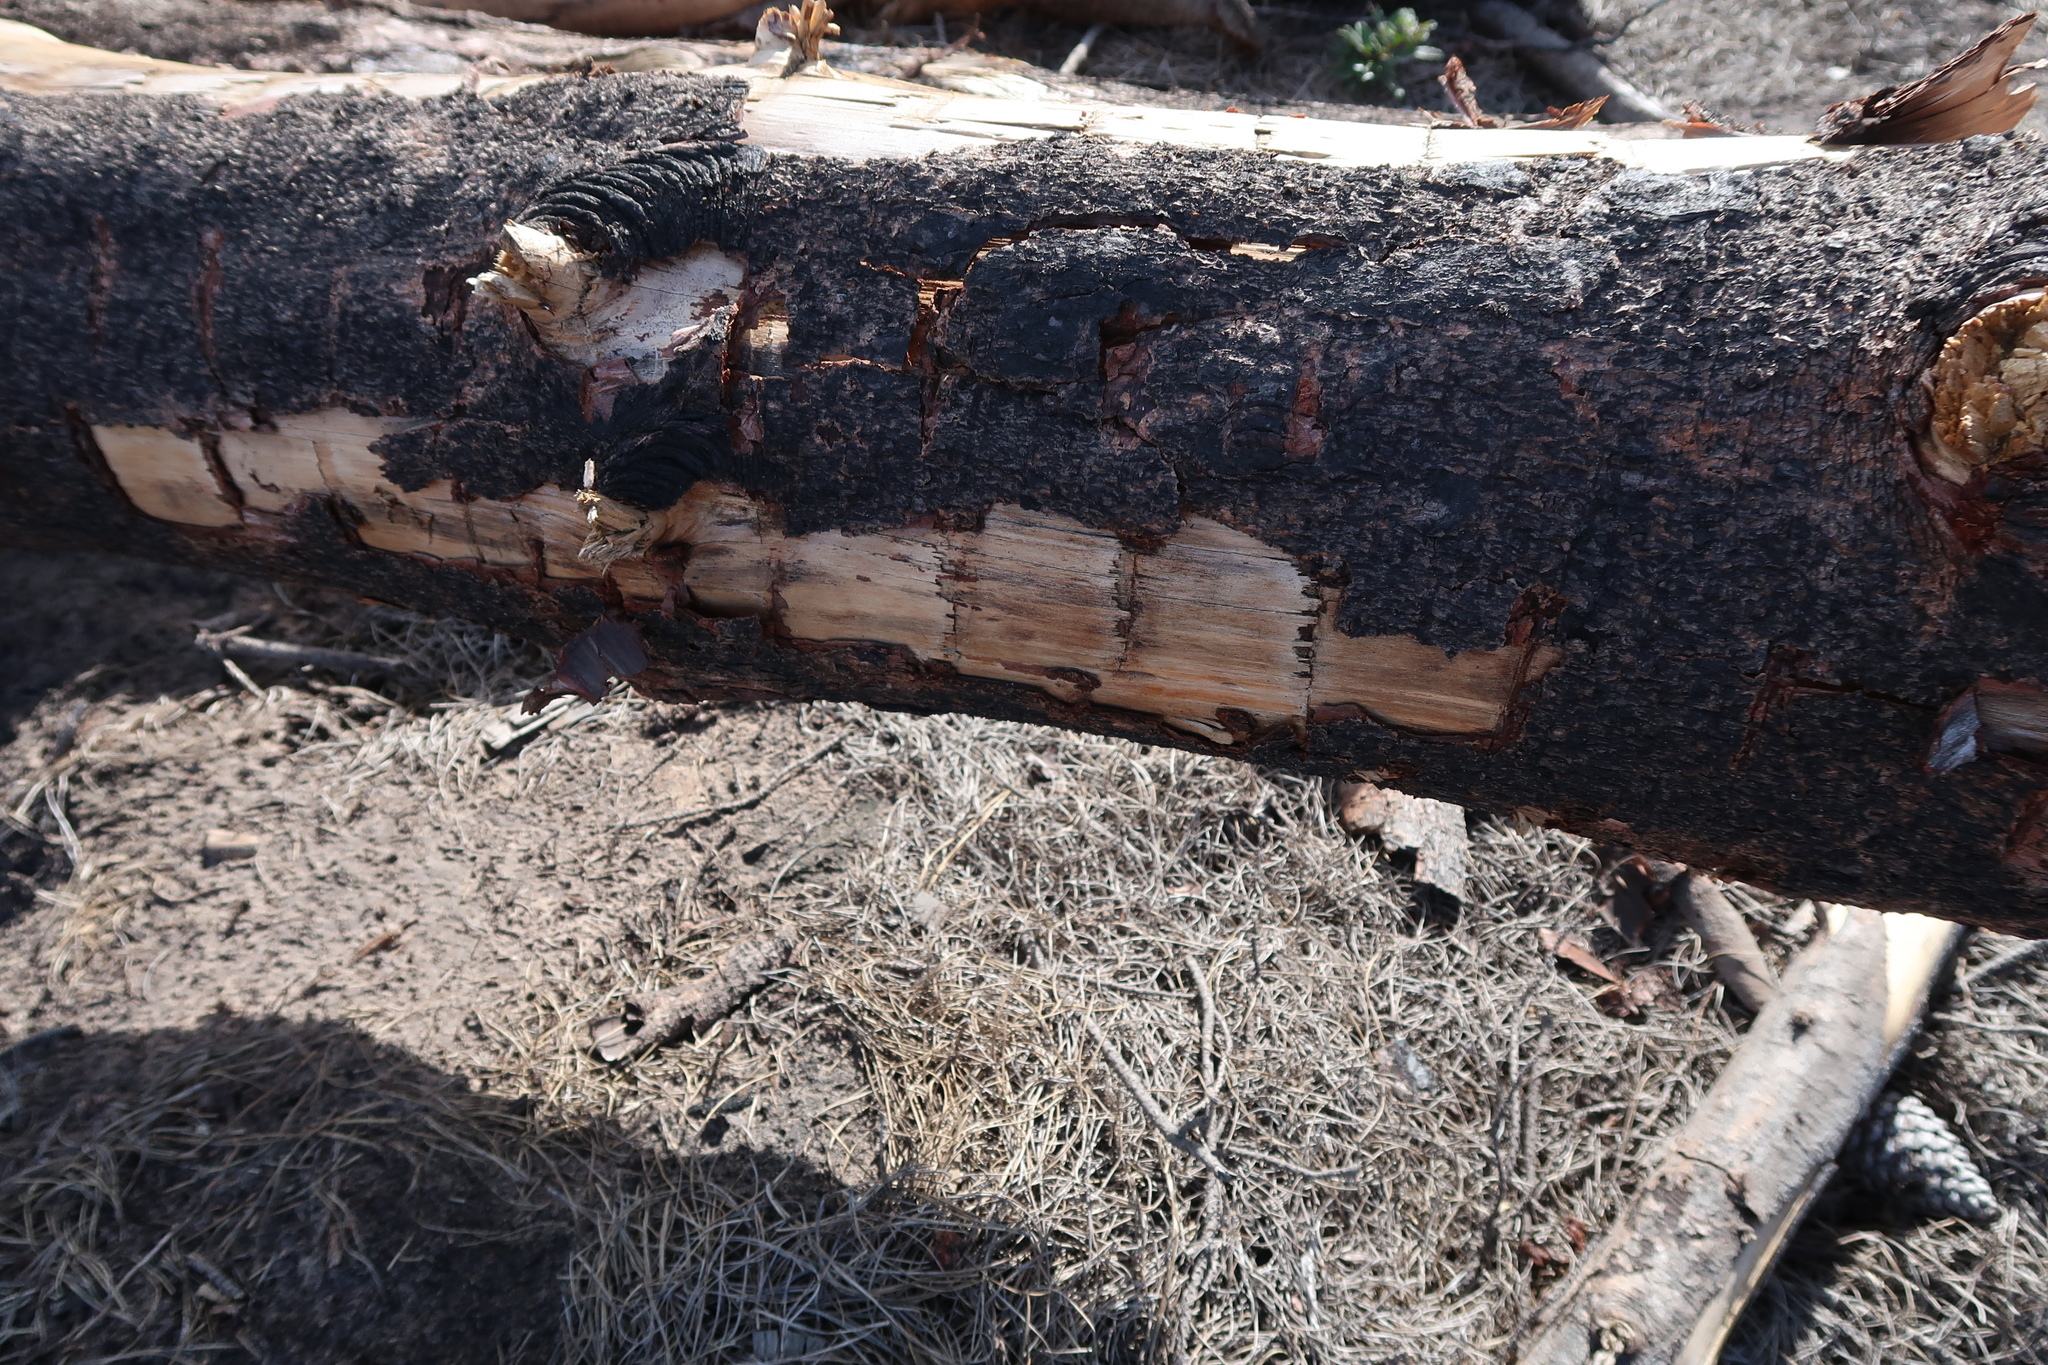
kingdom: Plantae
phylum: Tracheophyta
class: Pinopsida
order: Pinales
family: Pinaceae
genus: Pinus
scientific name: Pinus radiata
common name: Monterey pine
